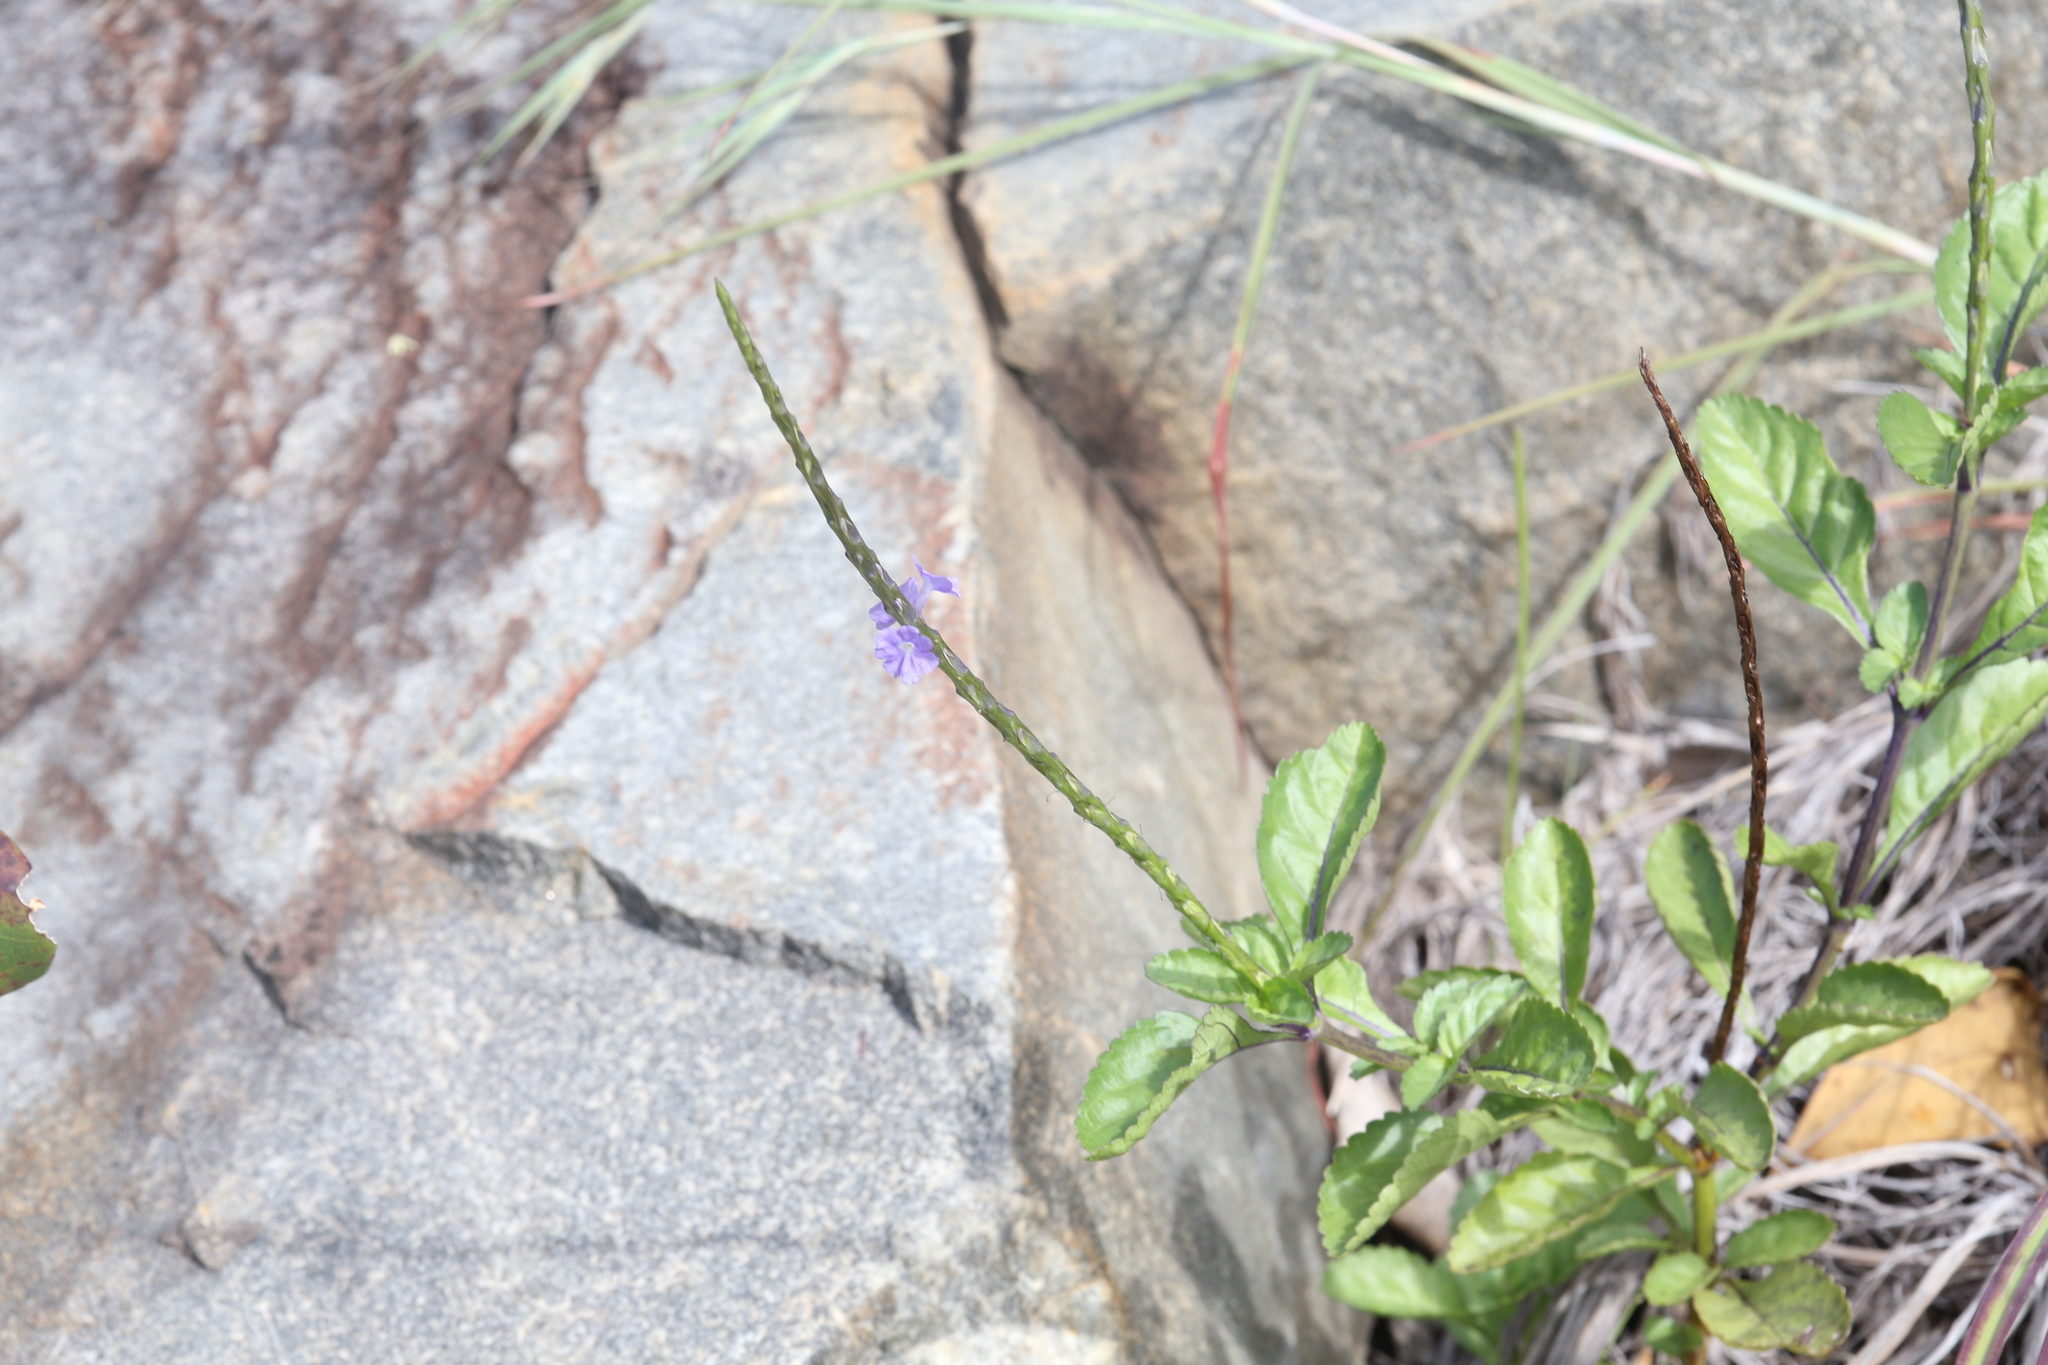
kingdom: Plantae
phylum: Tracheophyta
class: Magnoliopsida
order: Lamiales
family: Verbenaceae
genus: Stachytarpheta
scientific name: Stachytarpheta jamaicensis
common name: Light-blue snakeweed
